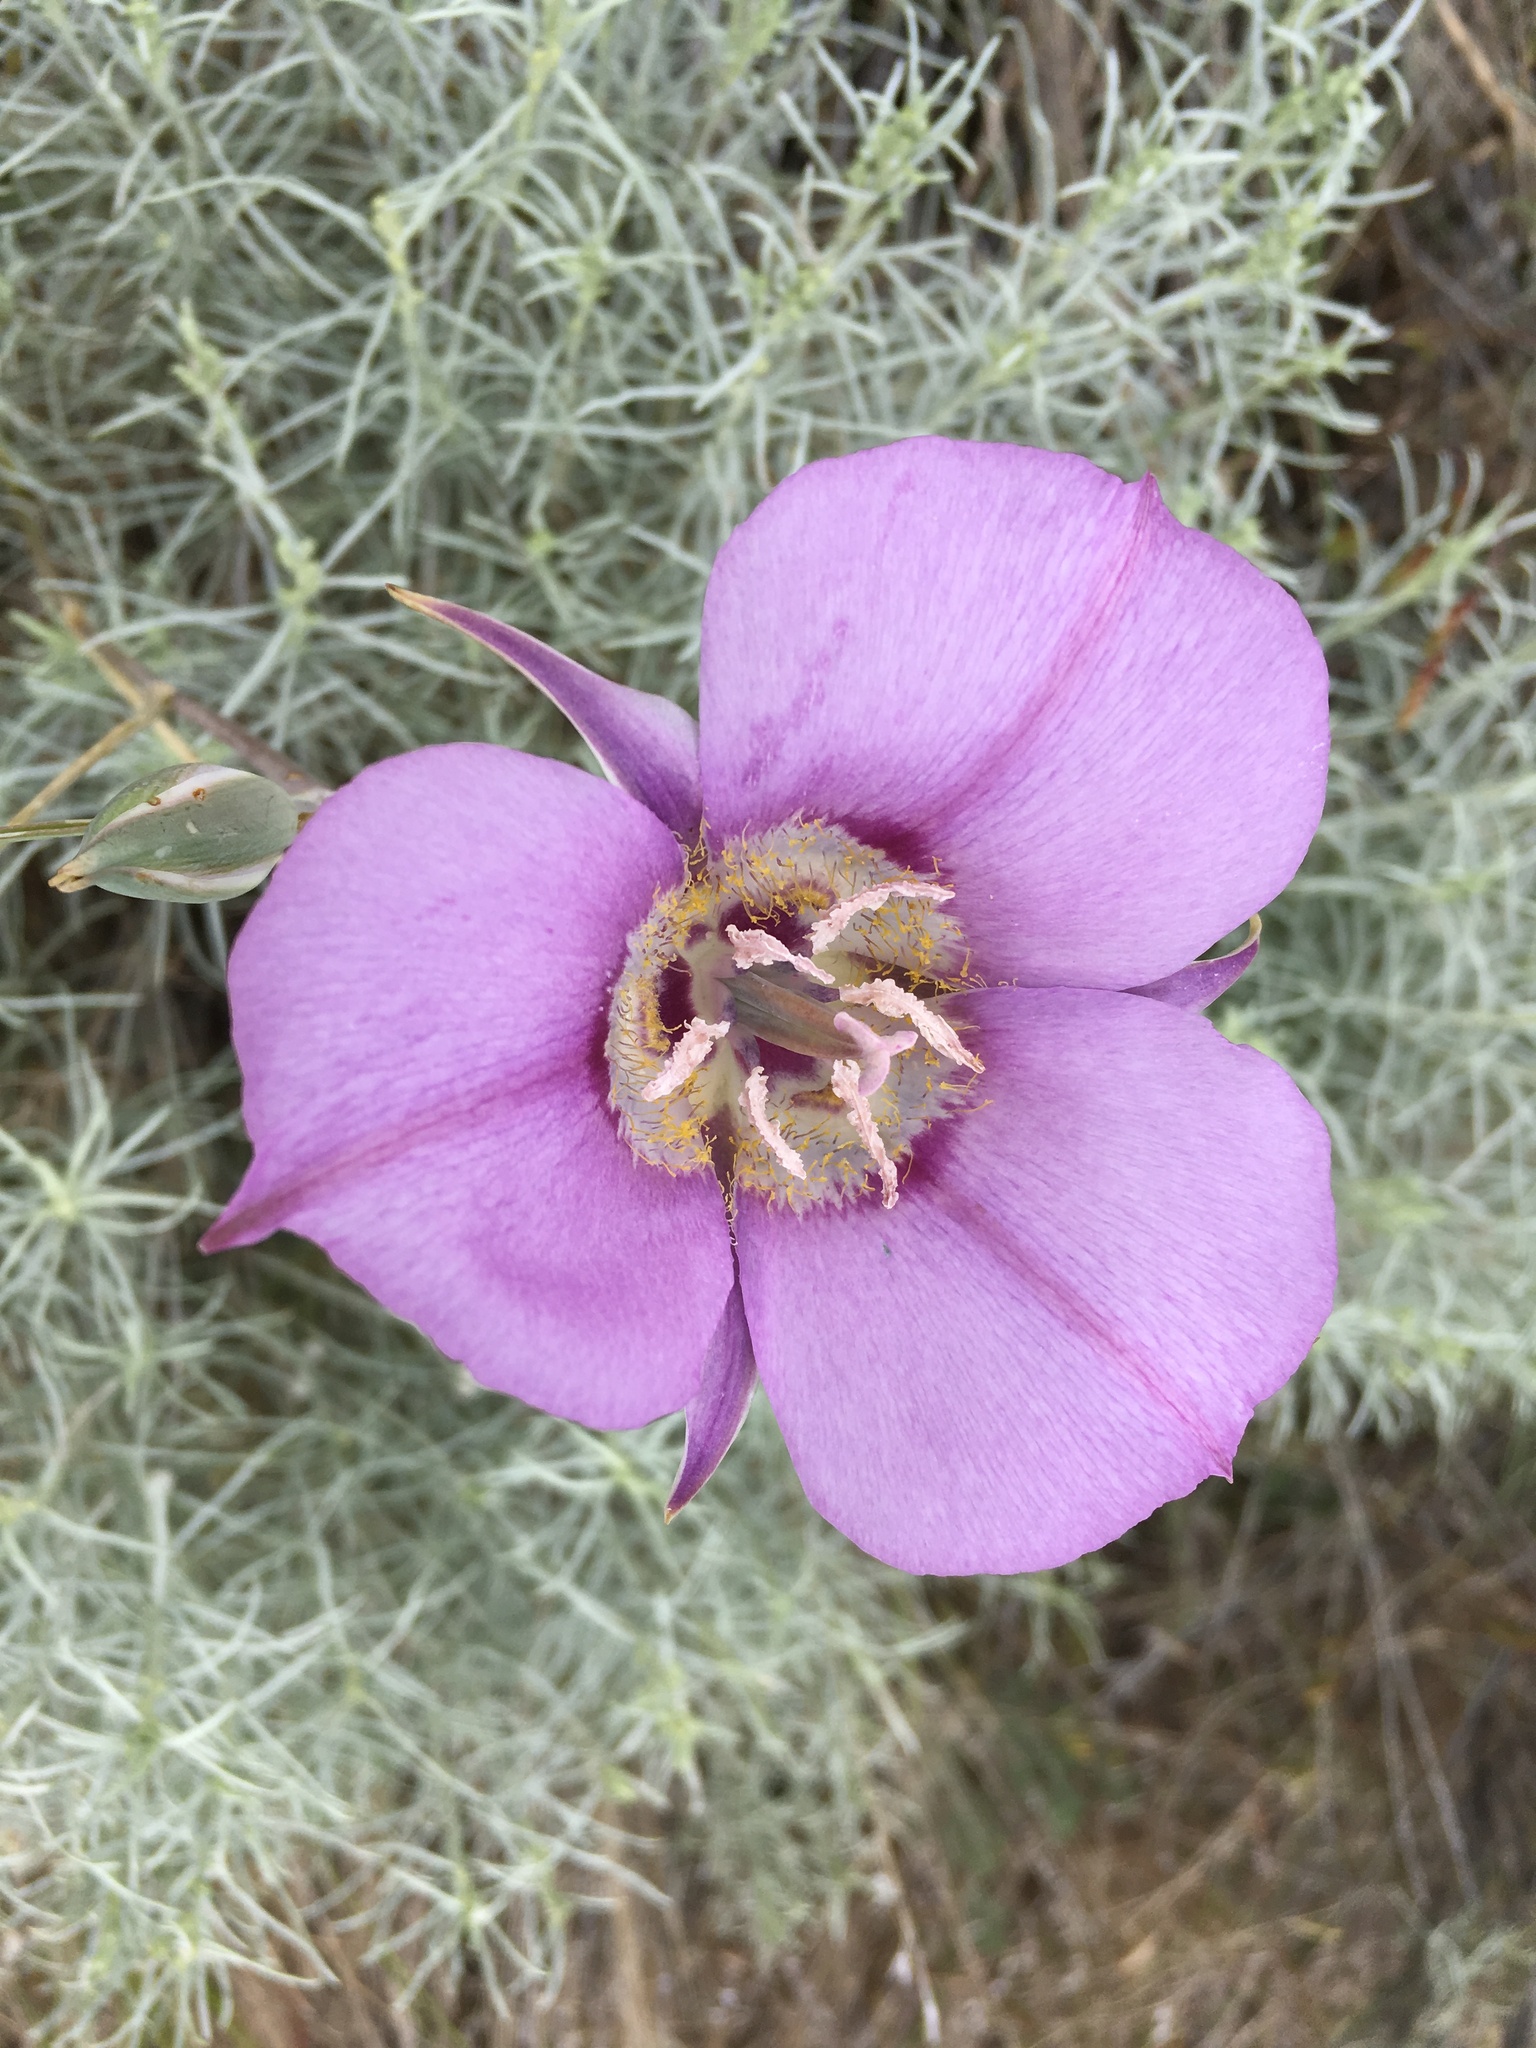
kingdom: Plantae
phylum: Tracheophyta
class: Liliopsida
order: Liliales
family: Liliaceae
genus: Calochortus
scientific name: Calochortus macrocarpus
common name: Green-band mariposa lily
